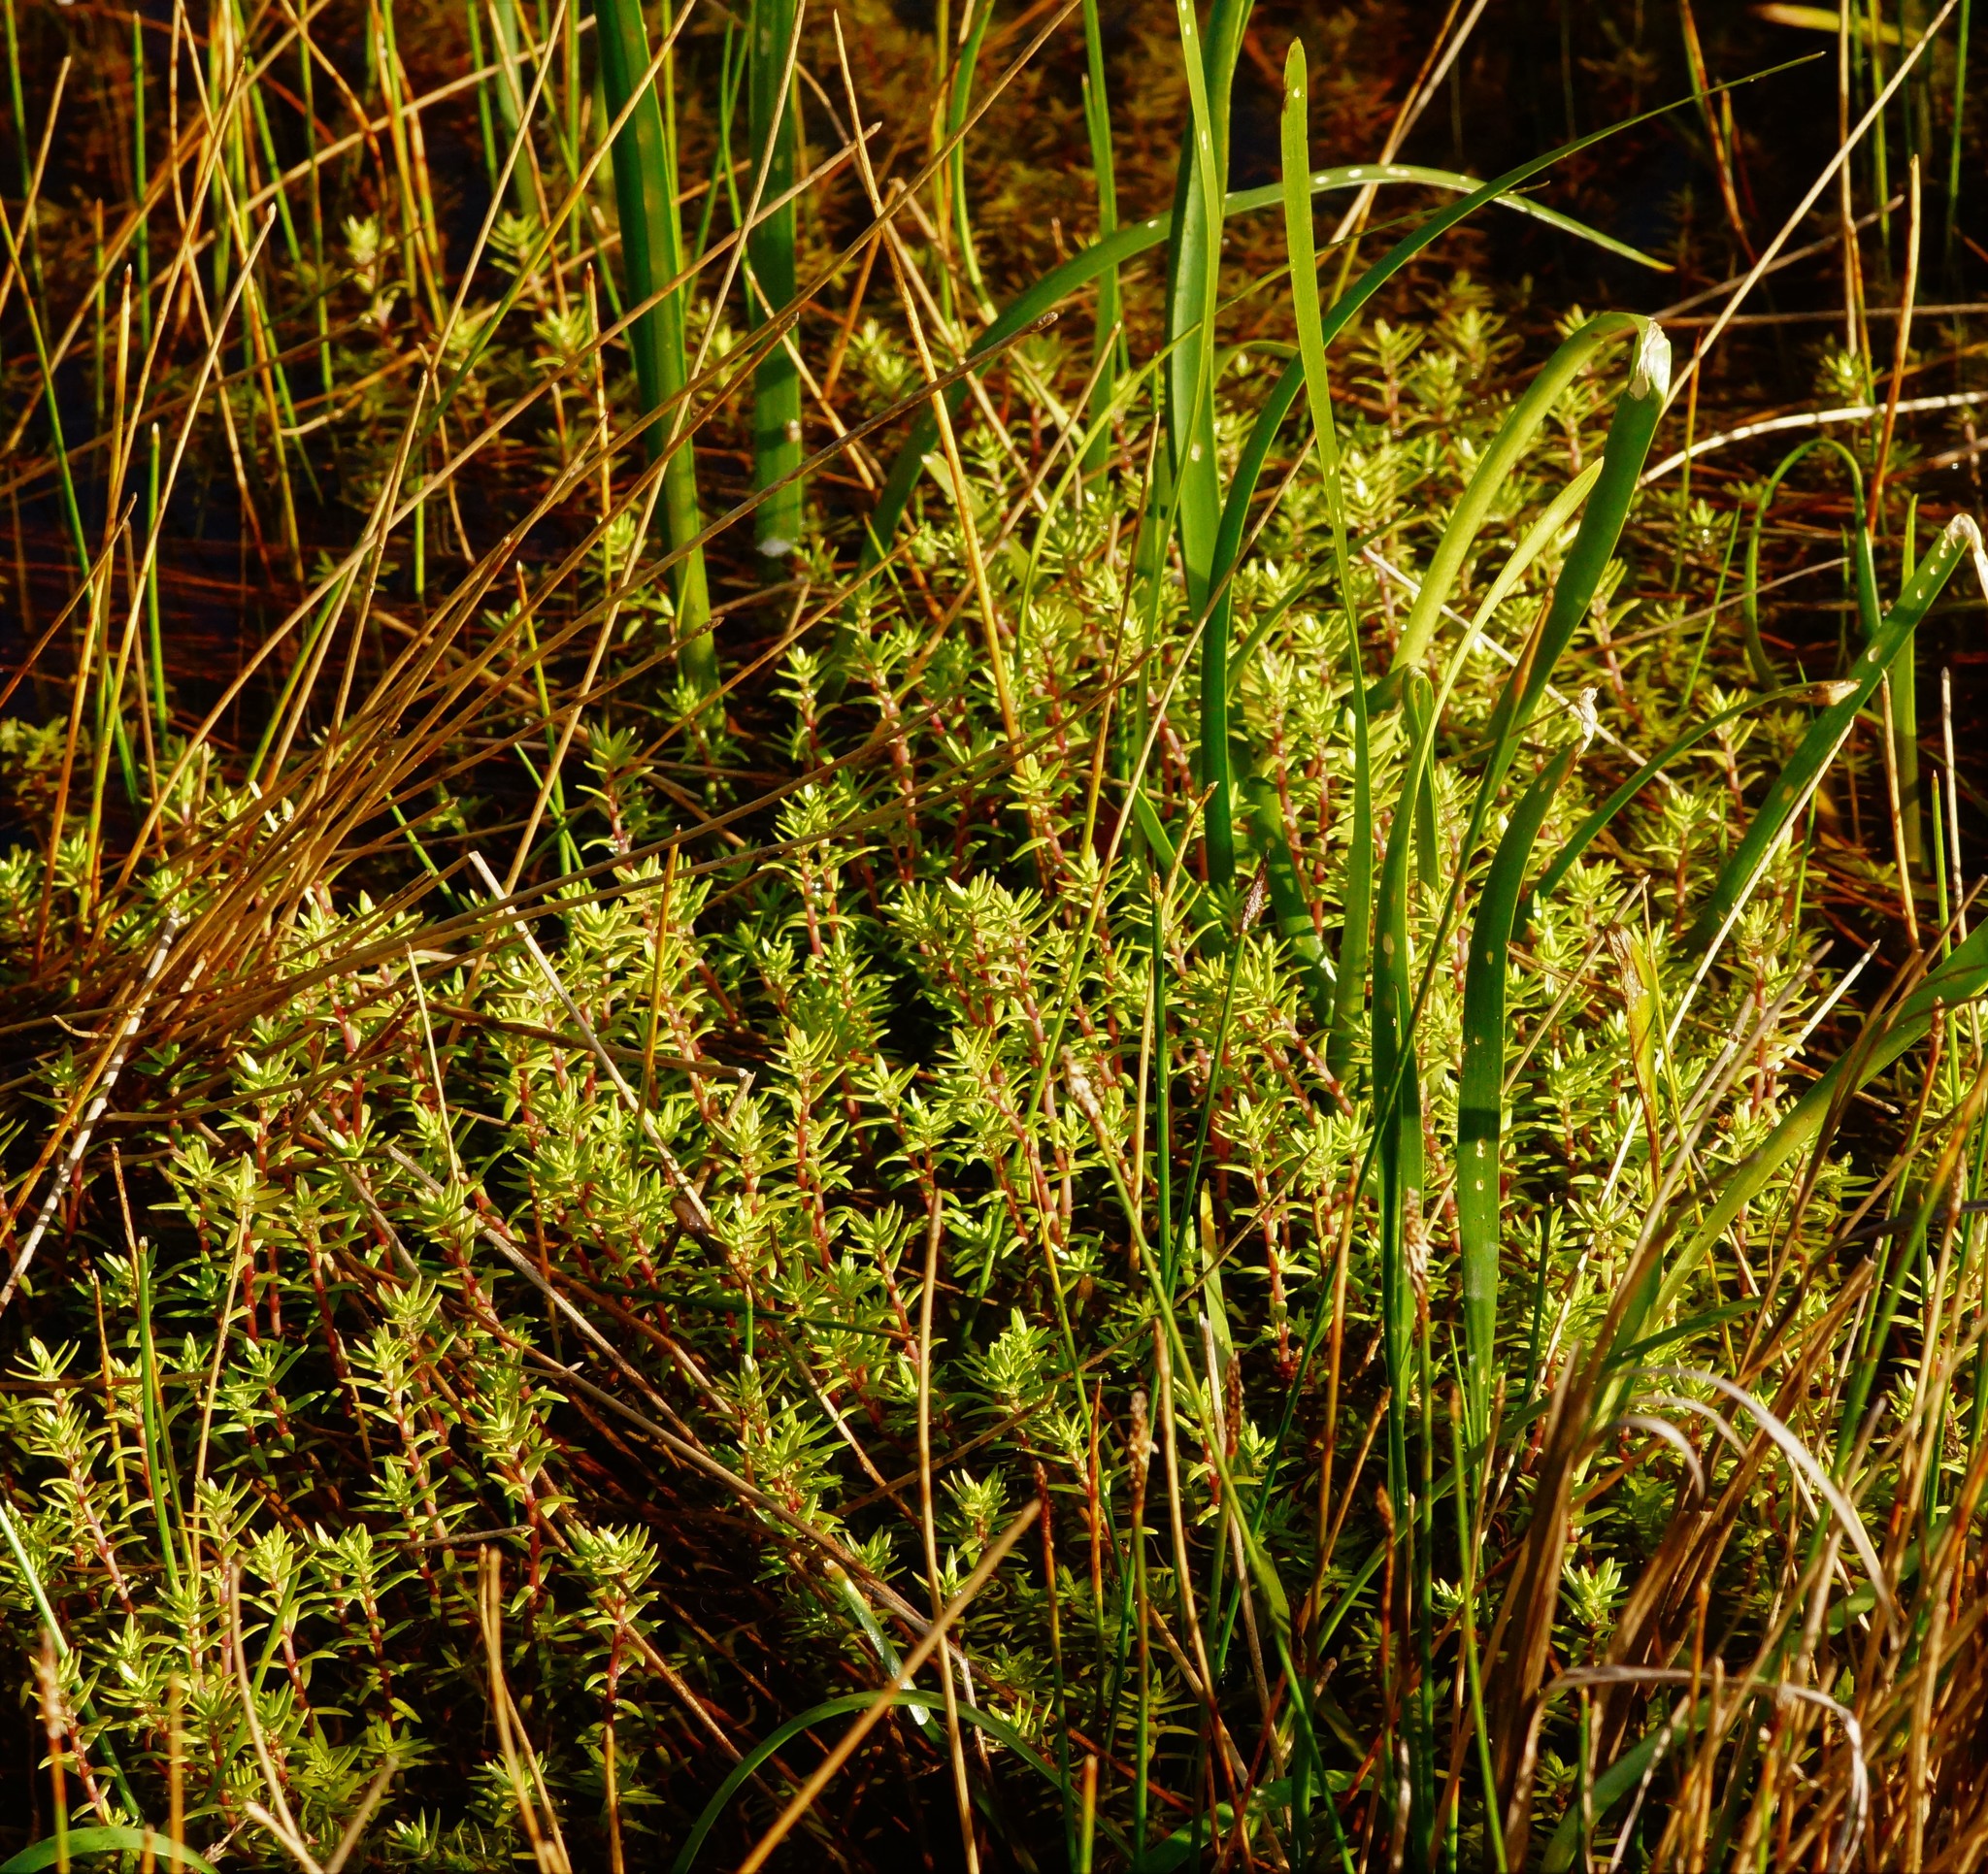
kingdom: Plantae
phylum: Tracheophyta
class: Magnoliopsida
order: Saxifragales
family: Crassulaceae
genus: Crassula
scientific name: Crassula helmsii
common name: New zealand pigmyweed
